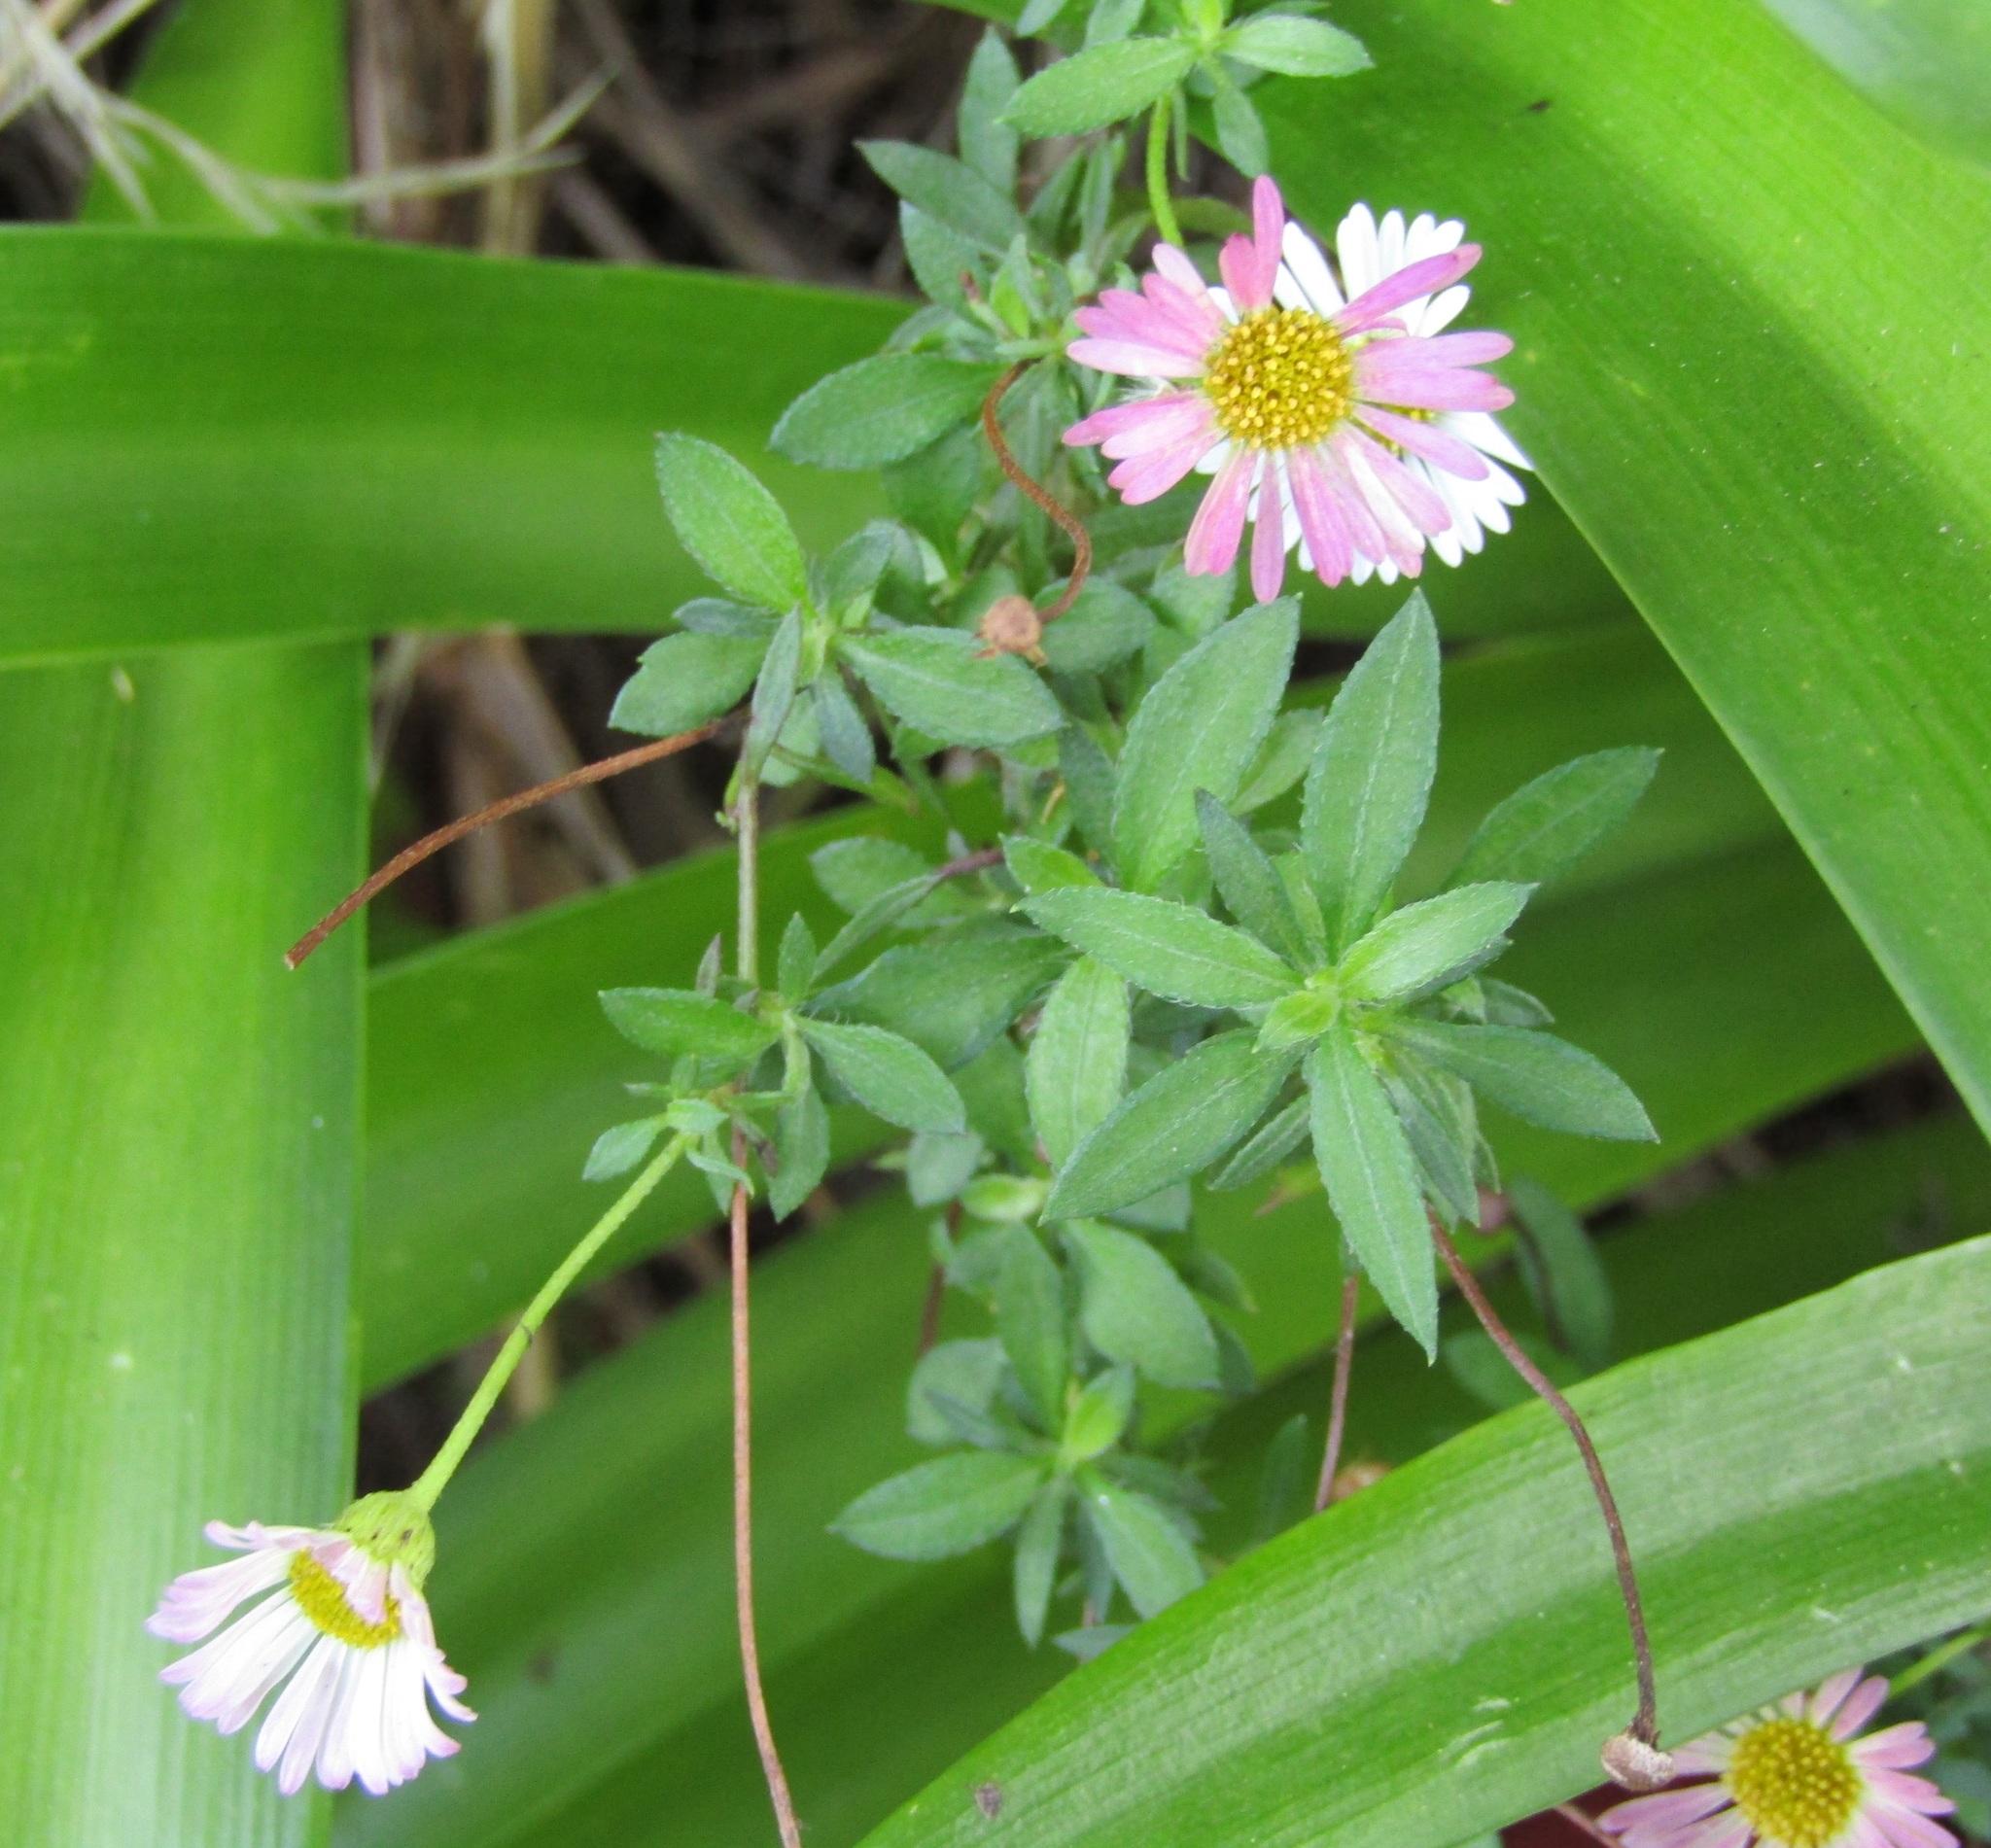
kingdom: Plantae
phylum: Tracheophyta
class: Magnoliopsida
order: Asterales
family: Asteraceae
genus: Erigeron
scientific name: Erigeron karvinskianus
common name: Mexican fleabane
